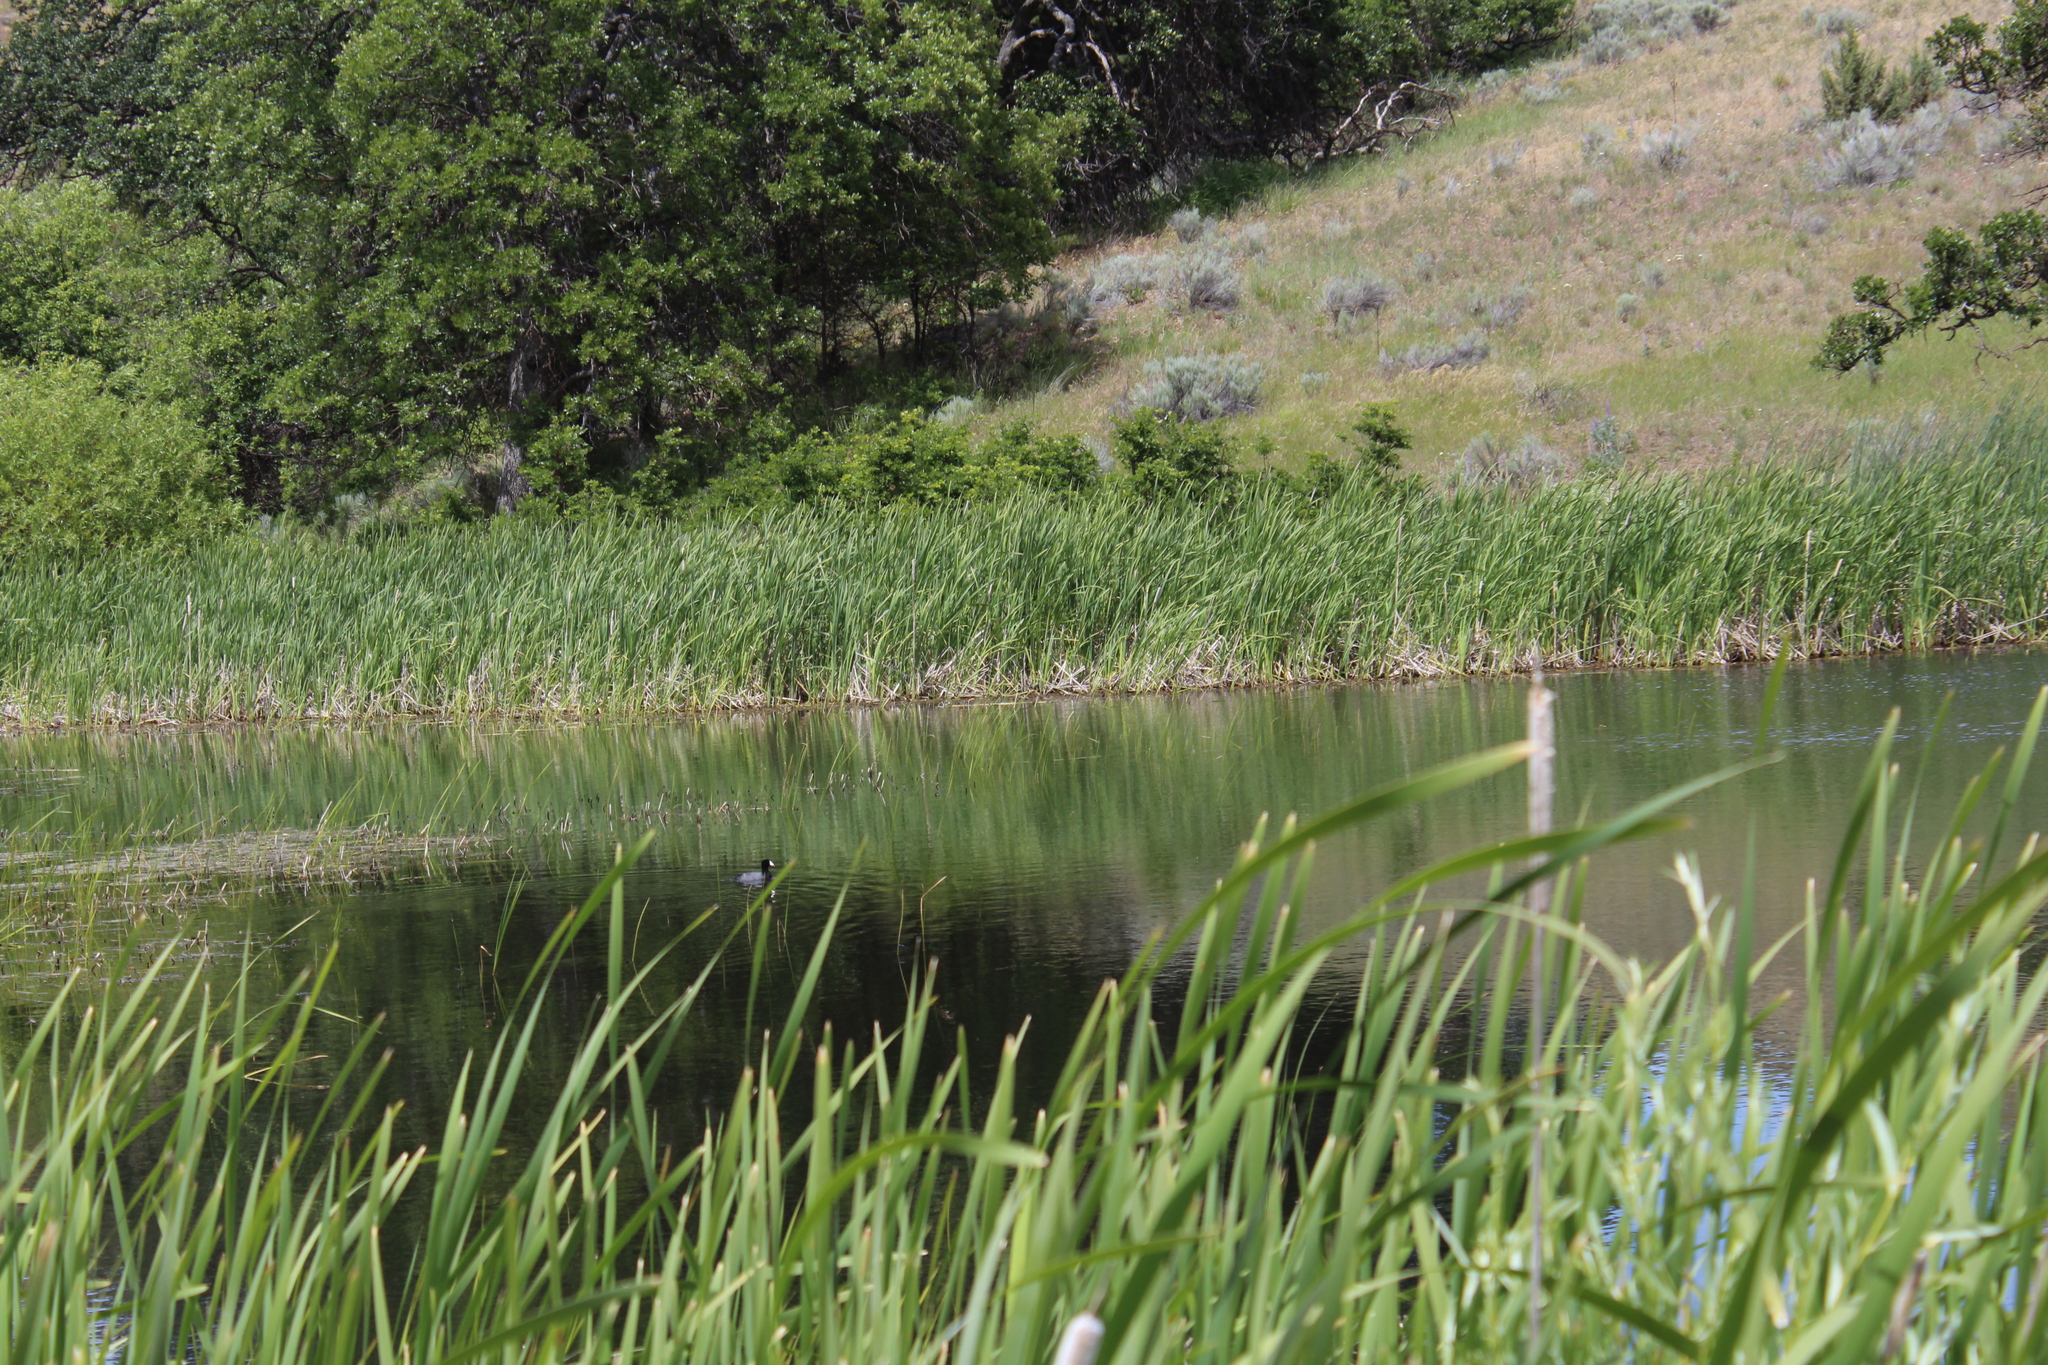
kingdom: Animalia
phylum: Chordata
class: Aves
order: Gruiformes
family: Rallidae
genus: Fulica
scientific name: Fulica americana
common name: American coot
